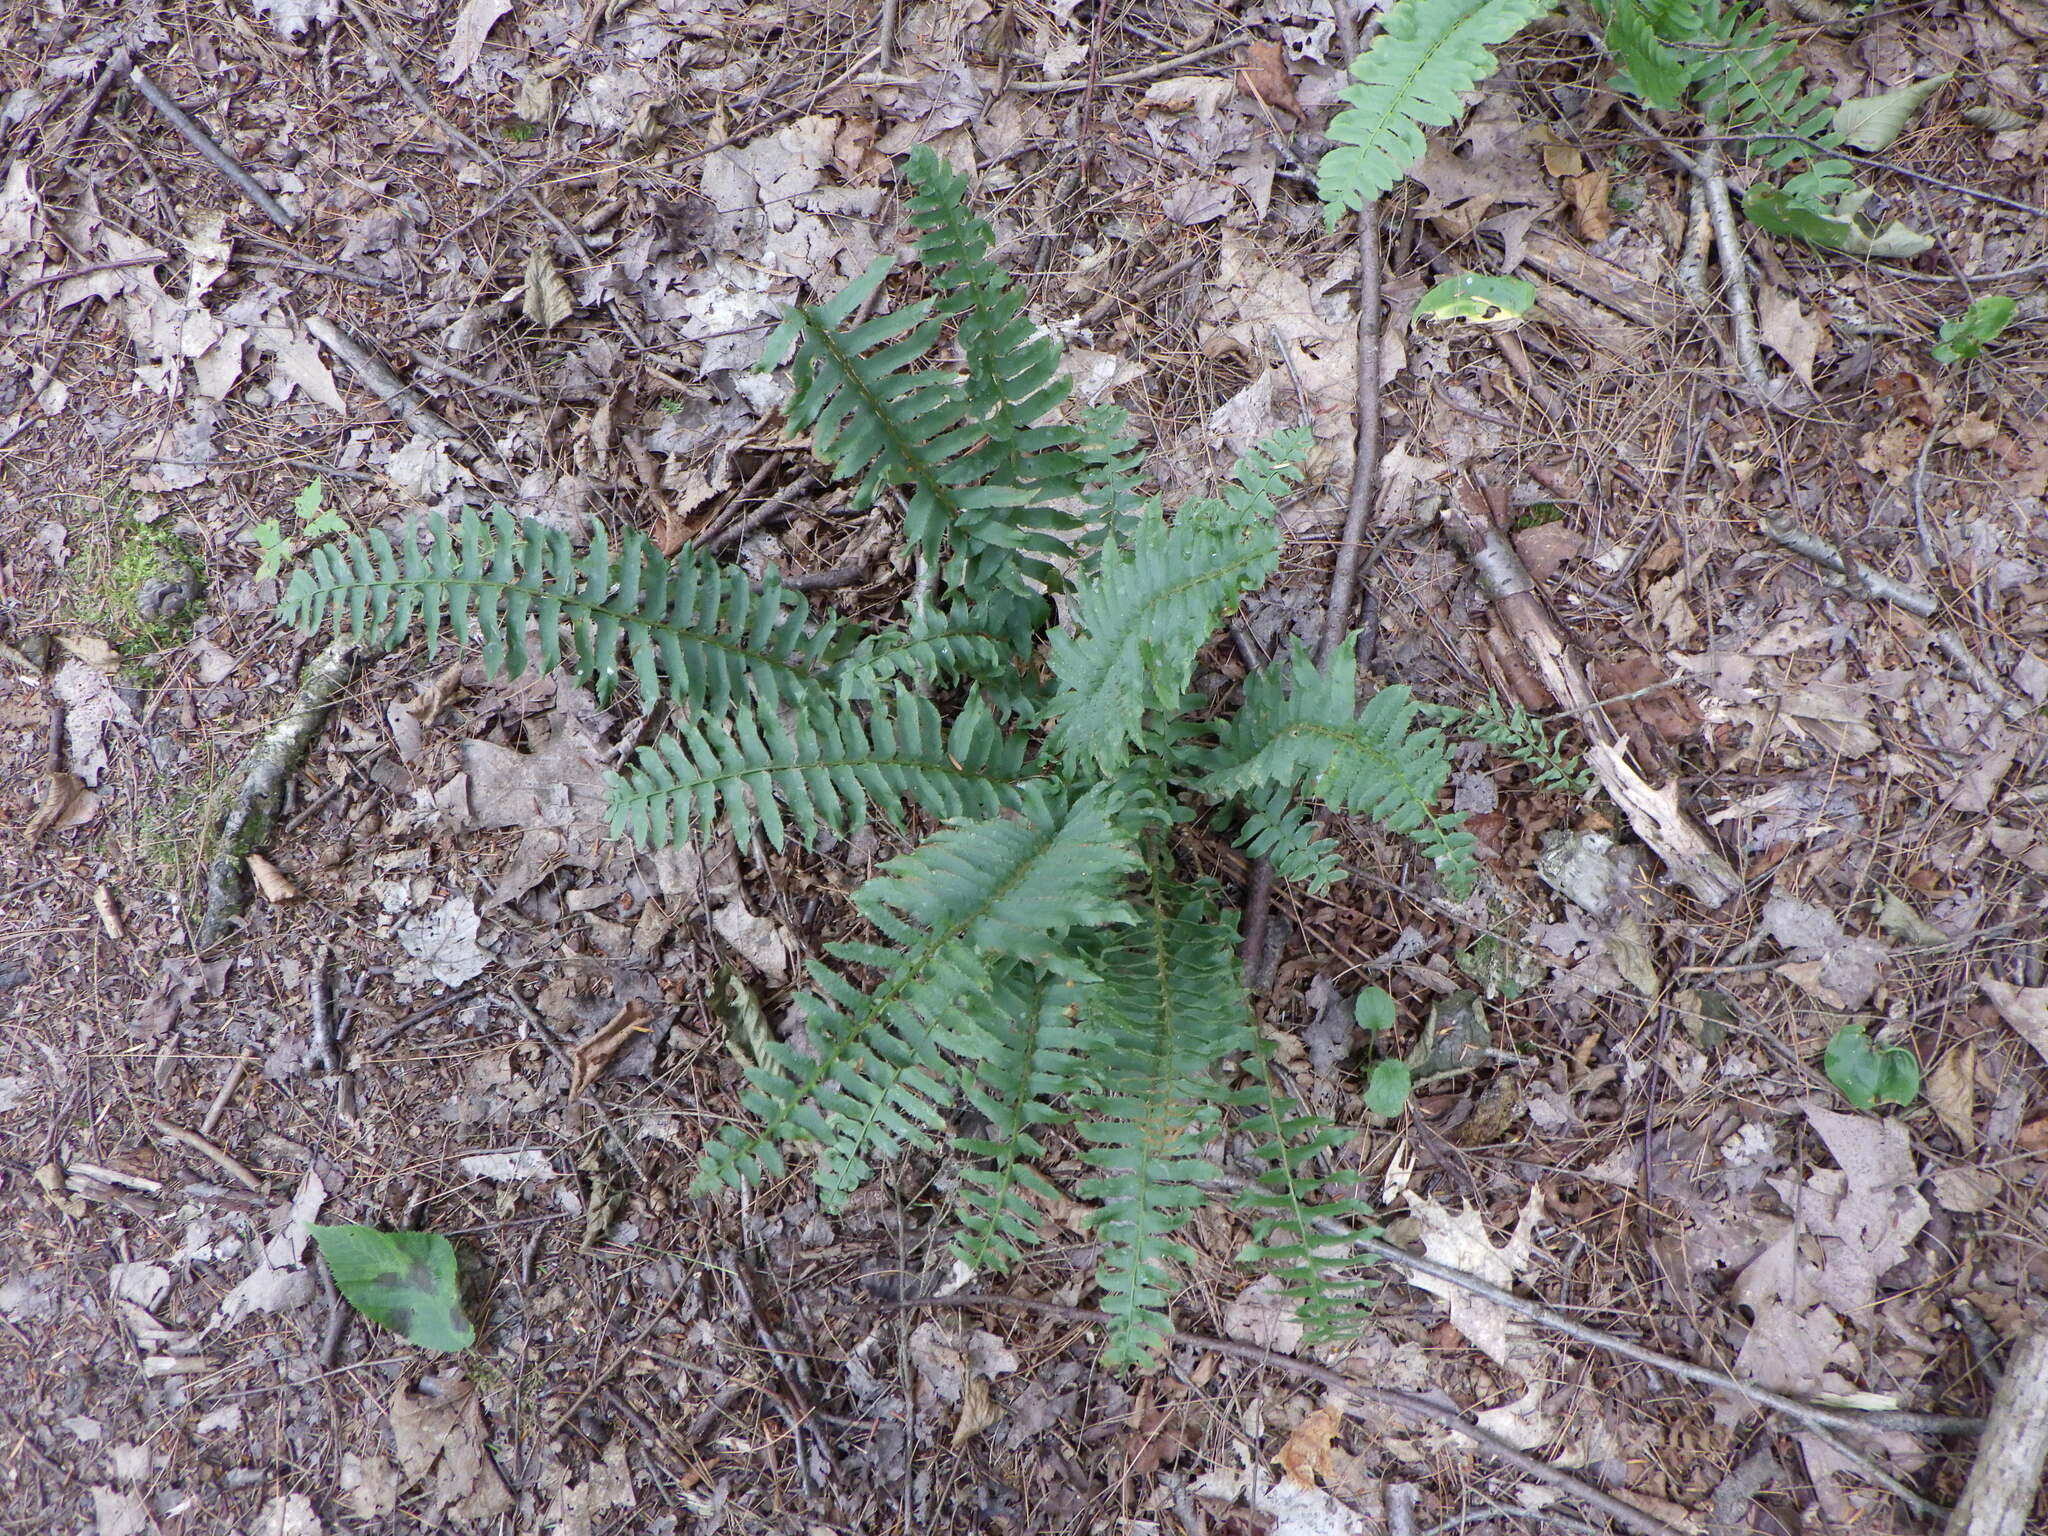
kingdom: Plantae
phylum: Tracheophyta
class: Polypodiopsida
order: Polypodiales
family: Dryopteridaceae
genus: Polystichum
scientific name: Polystichum acrostichoides
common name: Christmas fern
